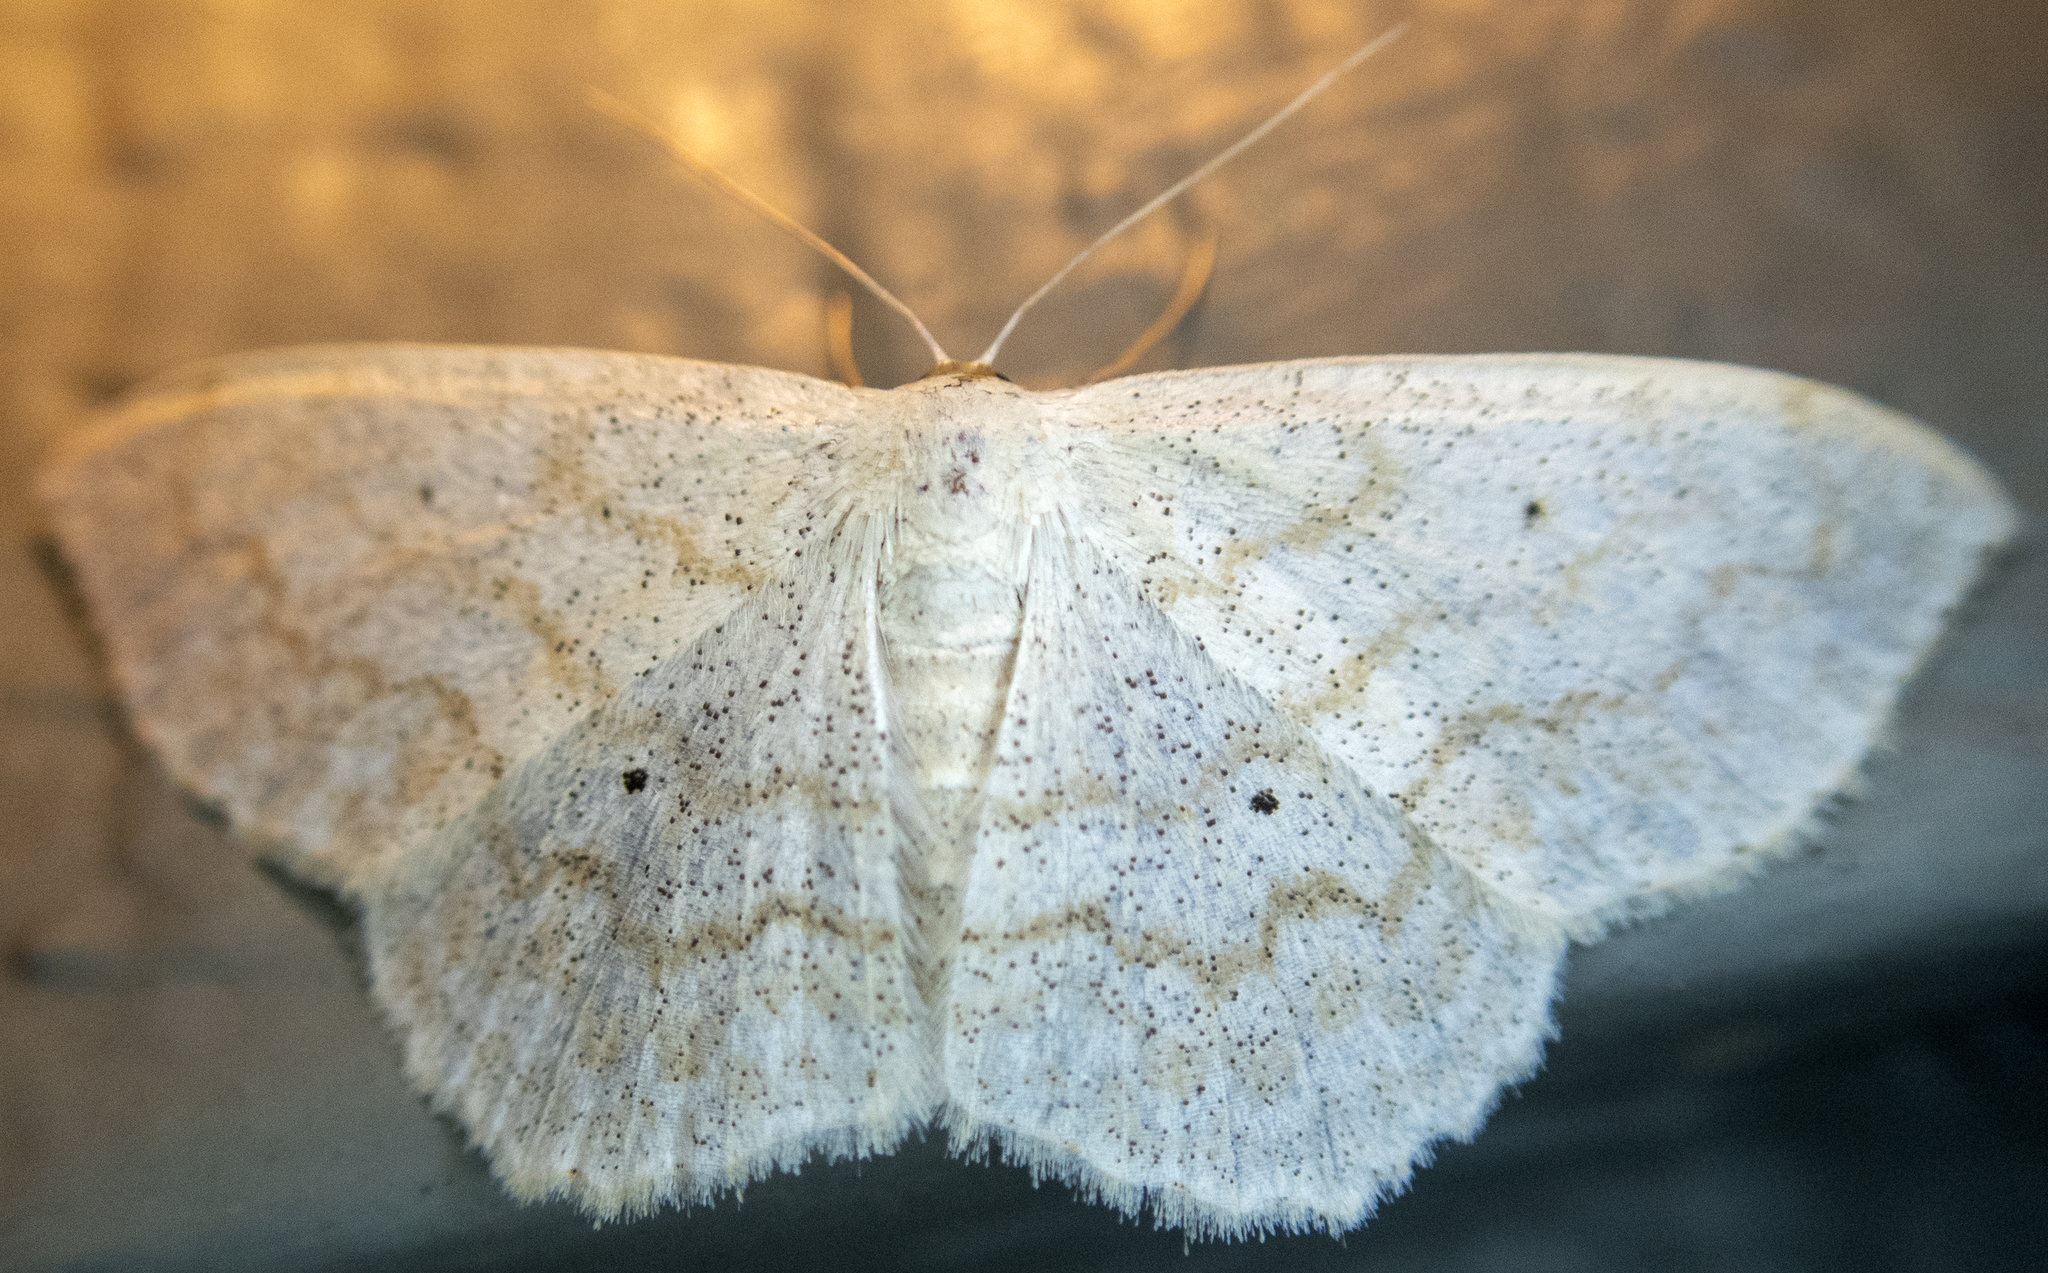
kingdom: Animalia
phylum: Arthropoda
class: Insecta
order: Lepidoptera
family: Geometridae
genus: Scopula
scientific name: Scopula limboundata
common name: Large lace border
